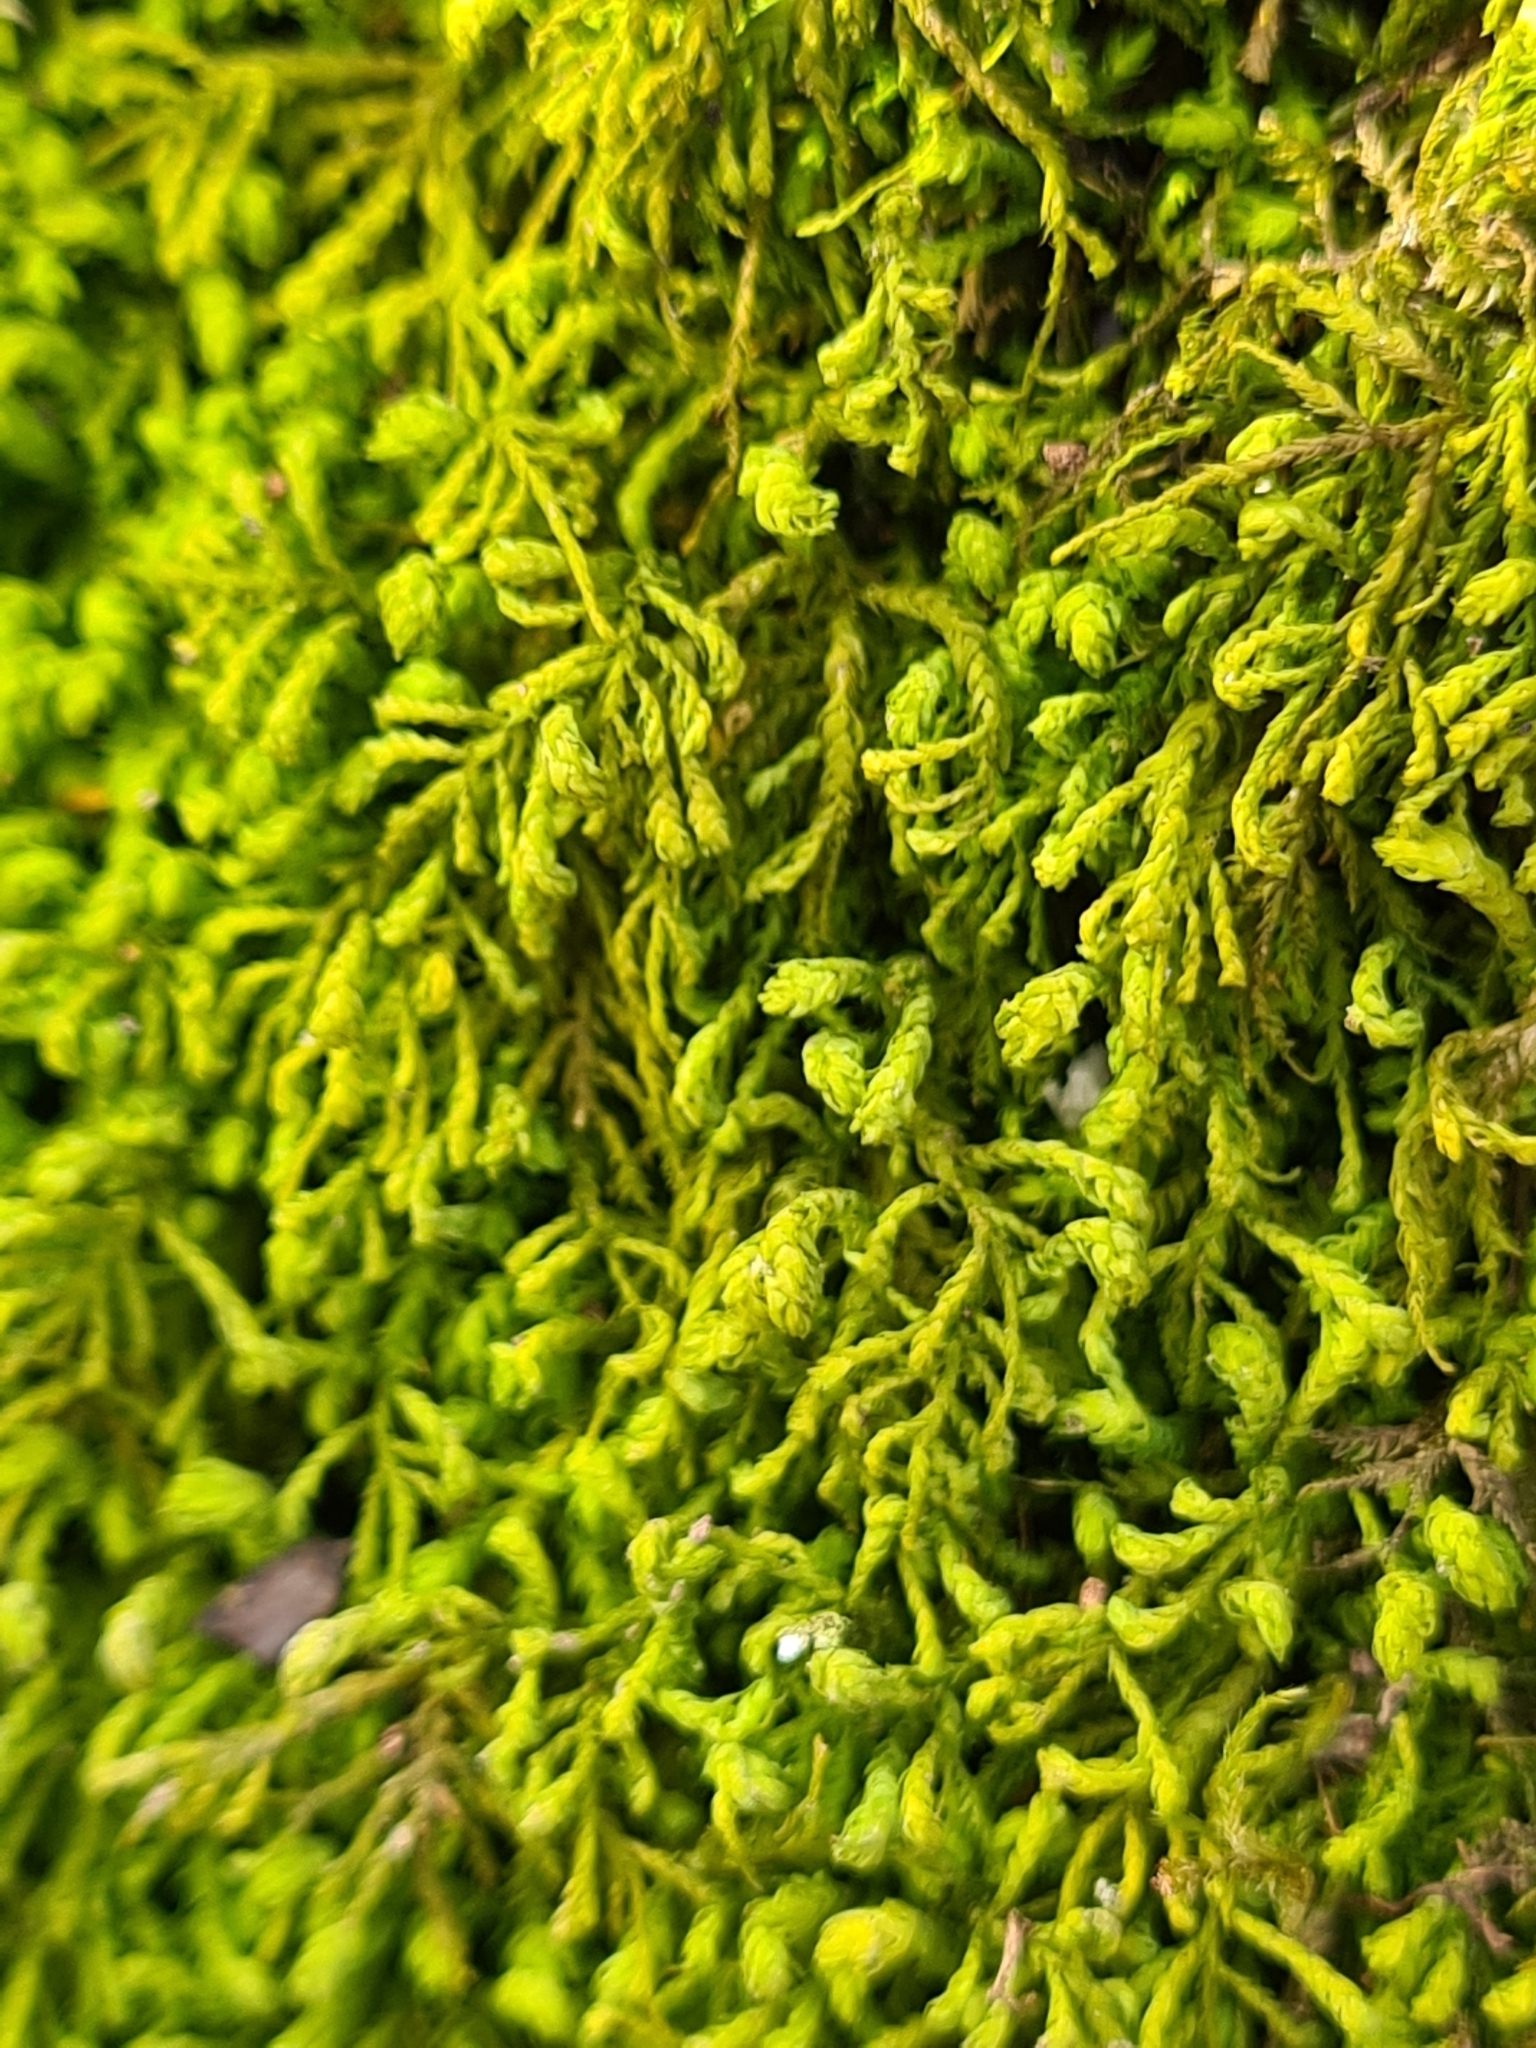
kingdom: Plantae
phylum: Bryophyta
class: Bryopsida
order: Hypnales
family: Neckeraceae
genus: Pseudanomodon
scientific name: Pseudanomodon attenuatus
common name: Tree-skirt moss
